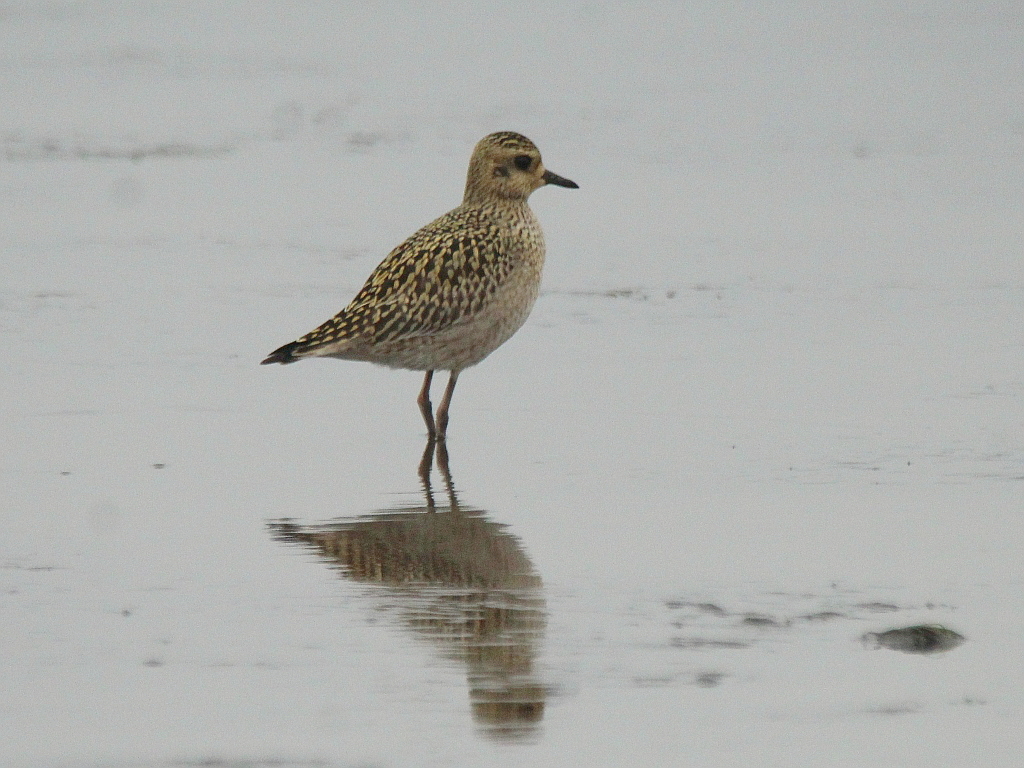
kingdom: Animalia
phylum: Chordata
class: Aves
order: Charadriiformes
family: Charadriidae
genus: Pluvialis
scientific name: Pluvialis fulva
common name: Pacific golden plover
